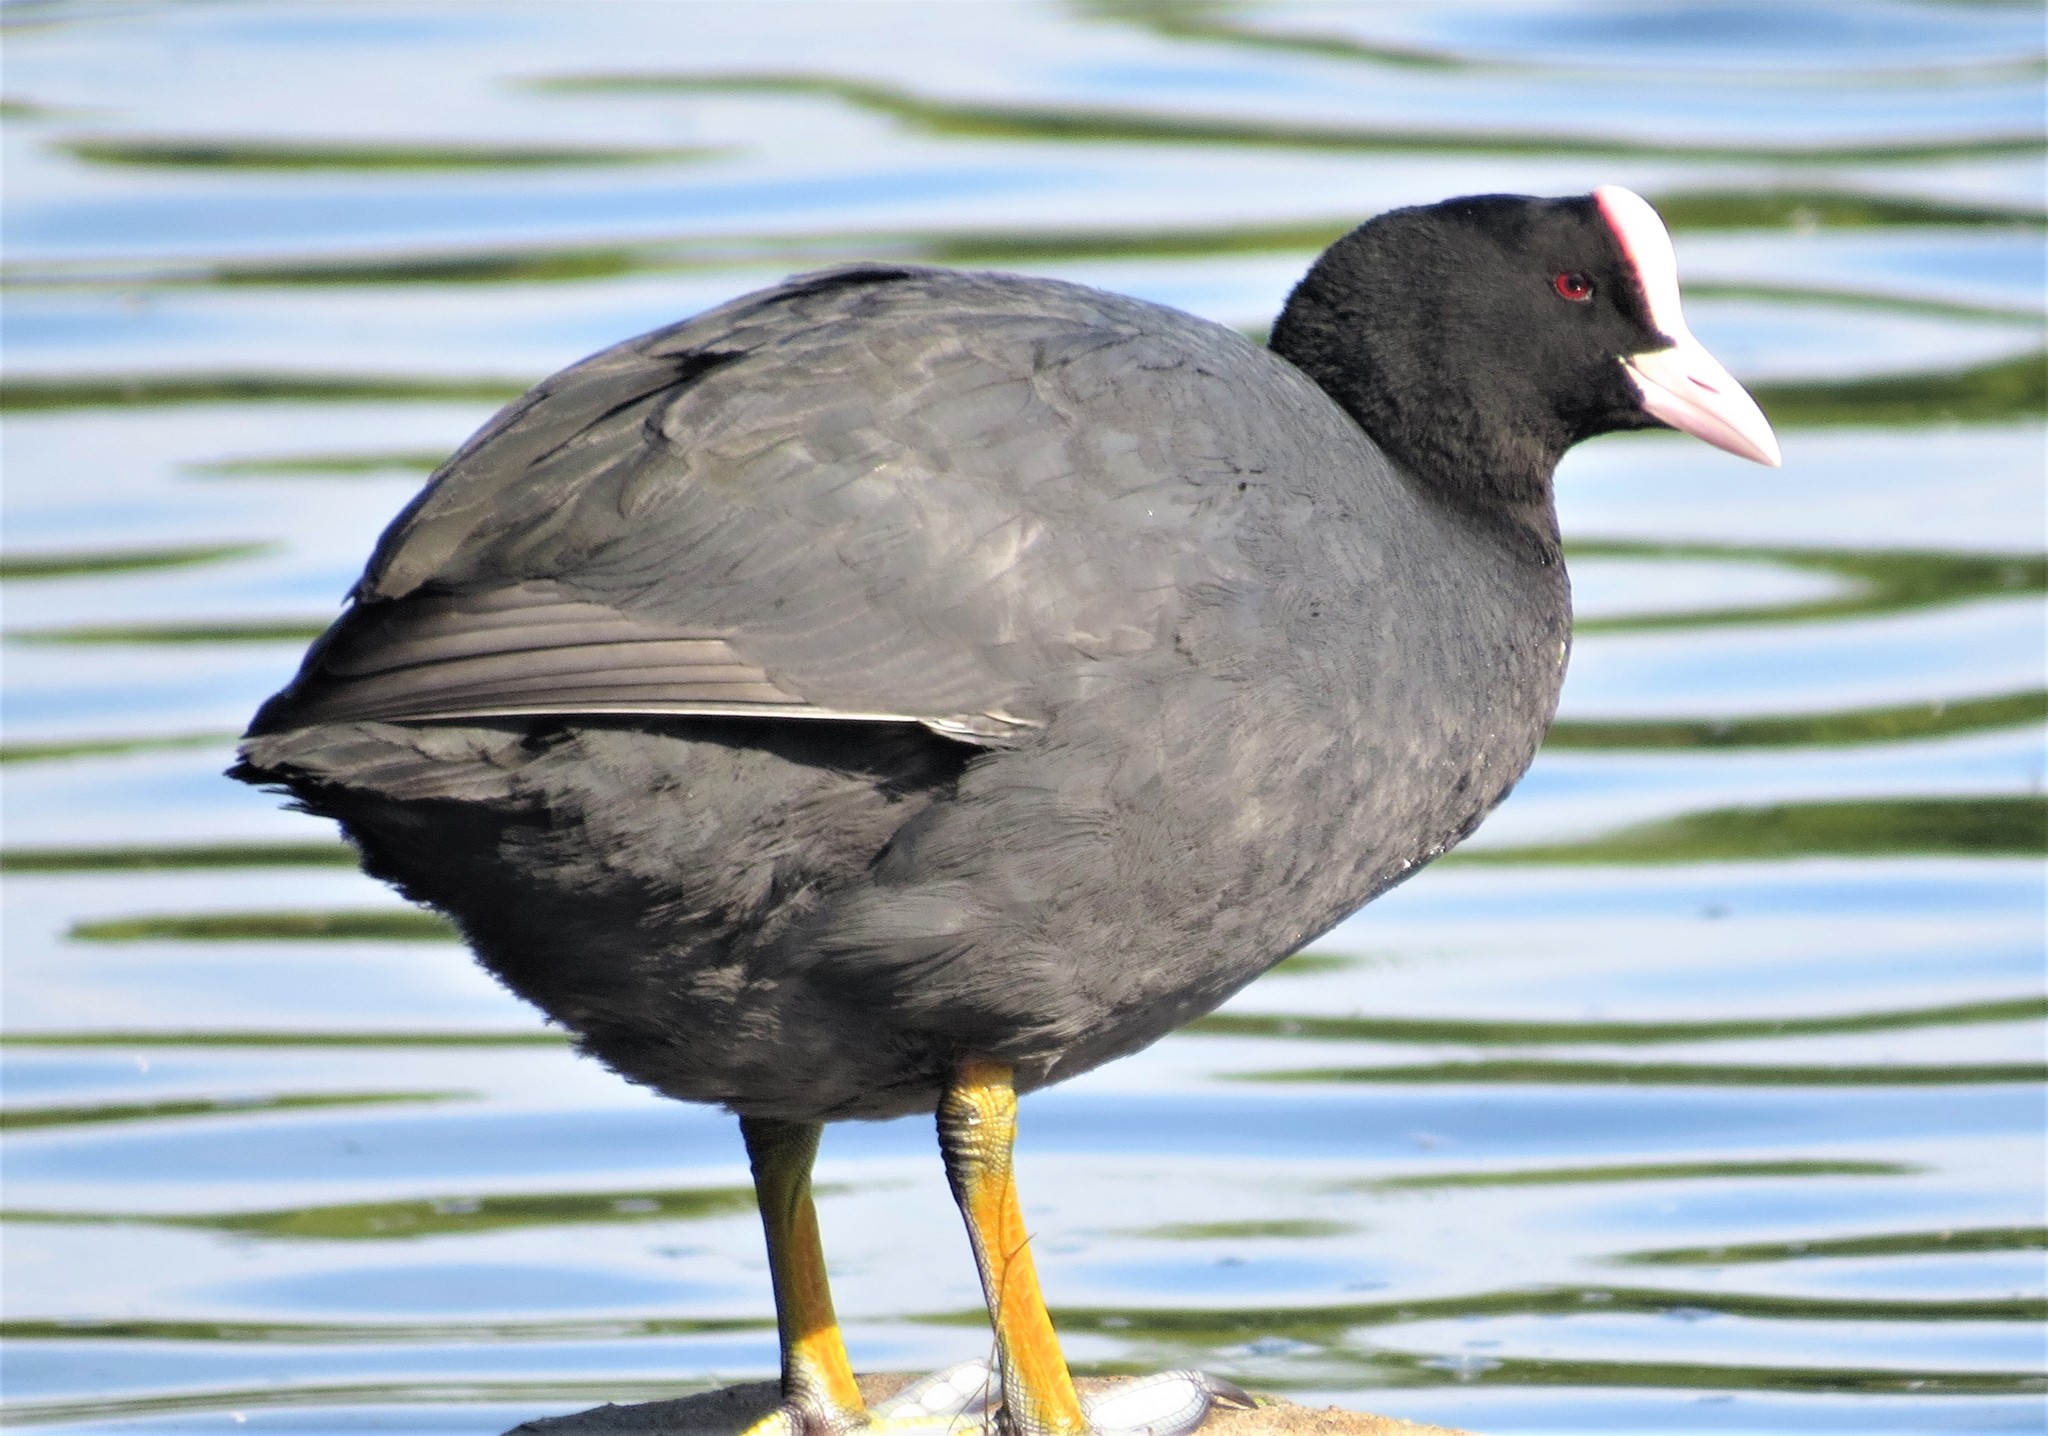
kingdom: Animalia
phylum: Chordata
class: Aves
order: Gruiformes
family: Rallidae
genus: Fulica
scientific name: Fulica atra
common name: Eurasian coot
